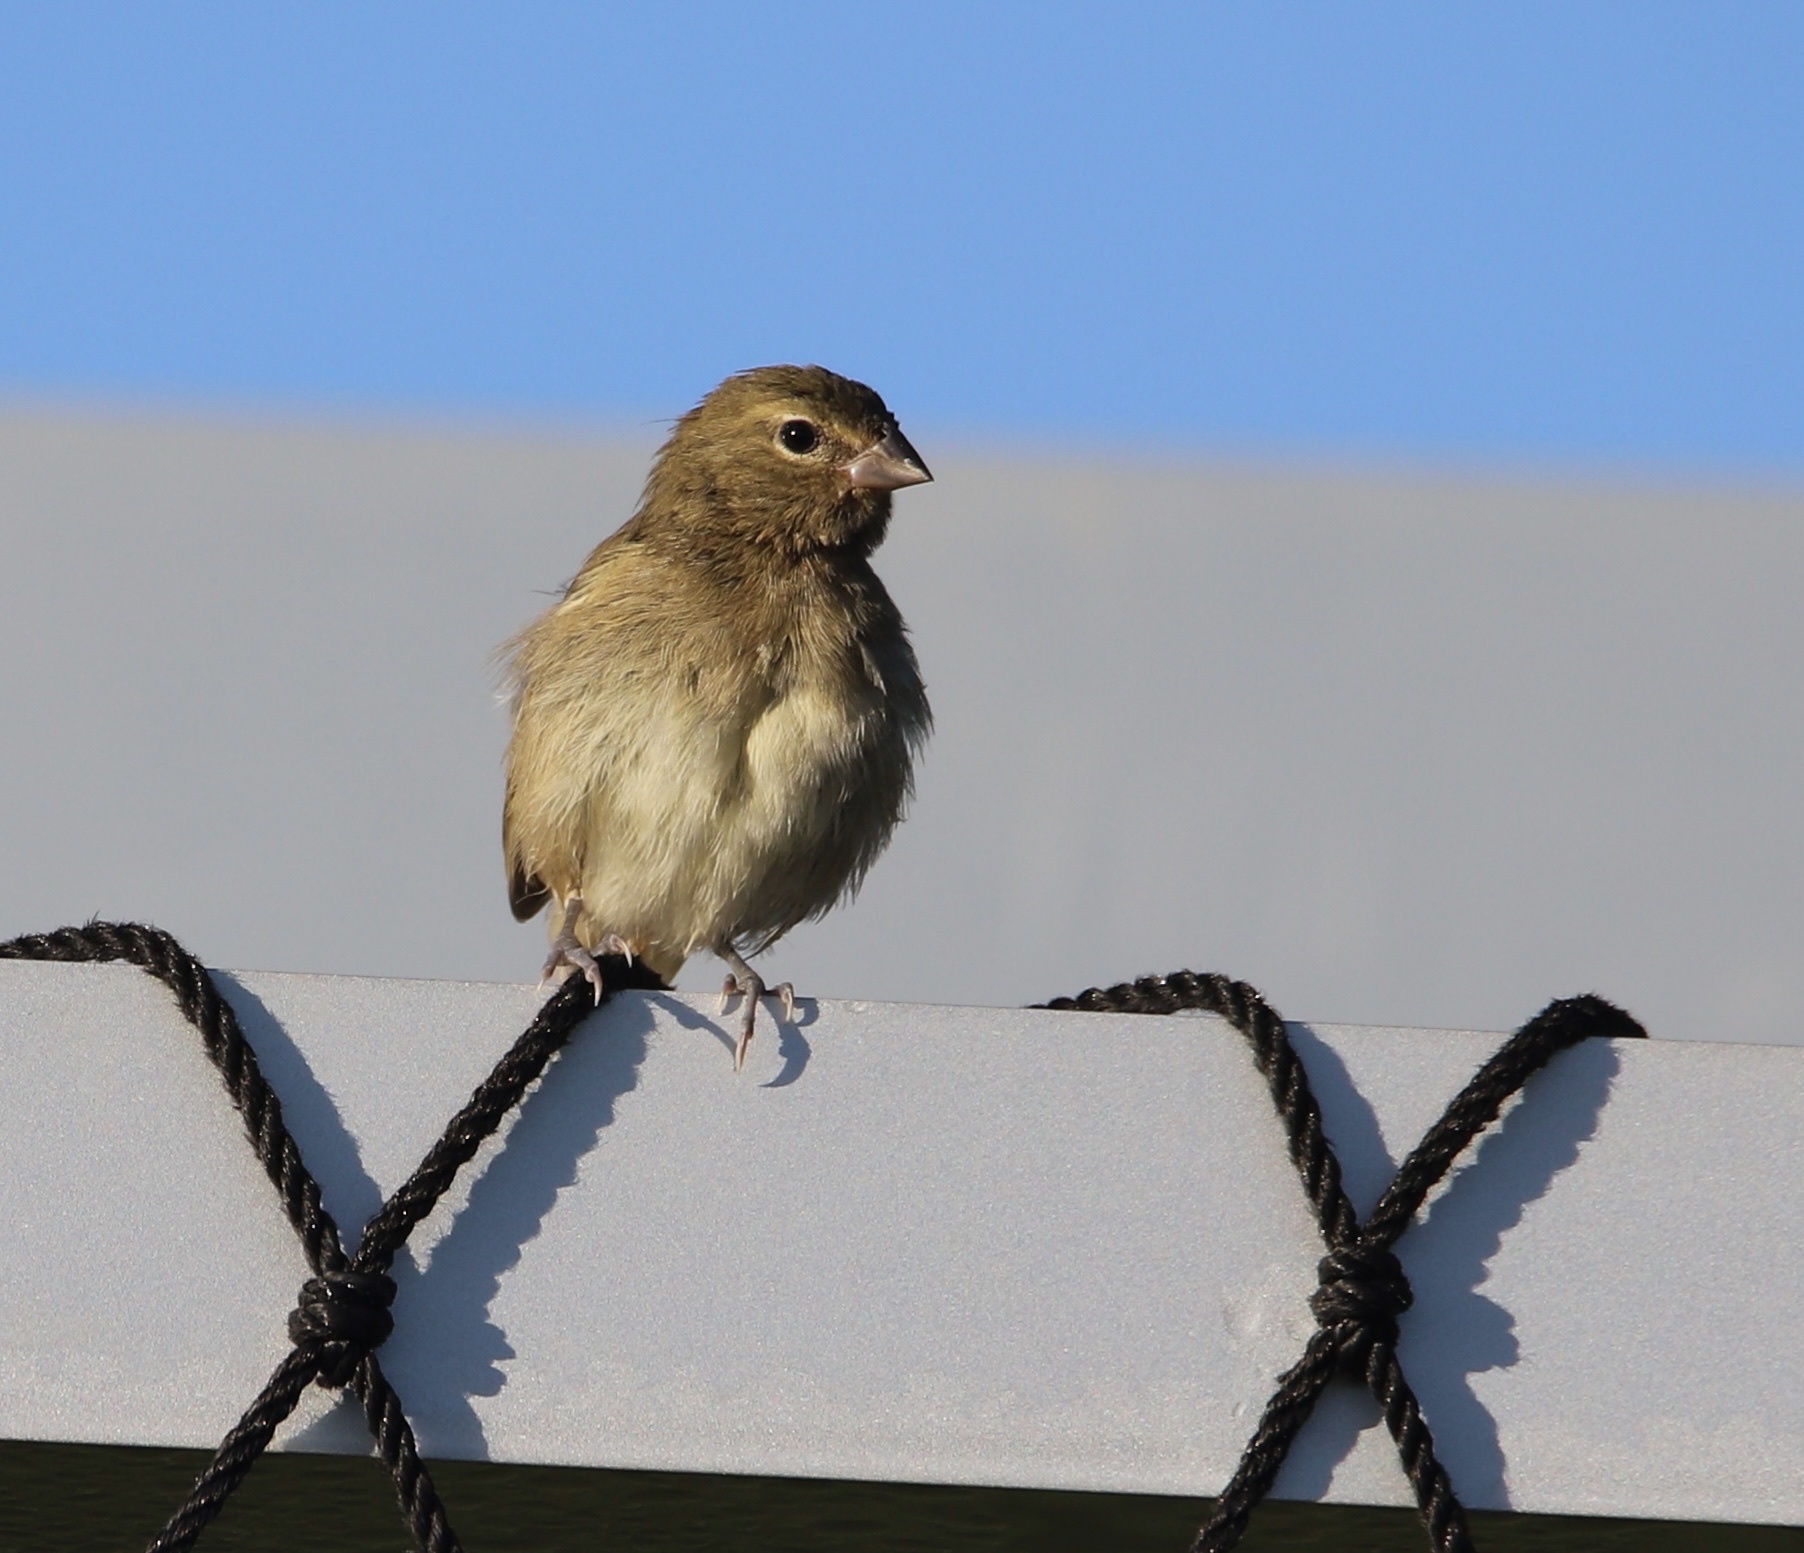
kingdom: Animalia
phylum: Chordata
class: Aves
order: Passeriformes
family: Thraupidae
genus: Tiaris
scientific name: Tiaris olivaceus
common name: Yellow-faced grassquit
